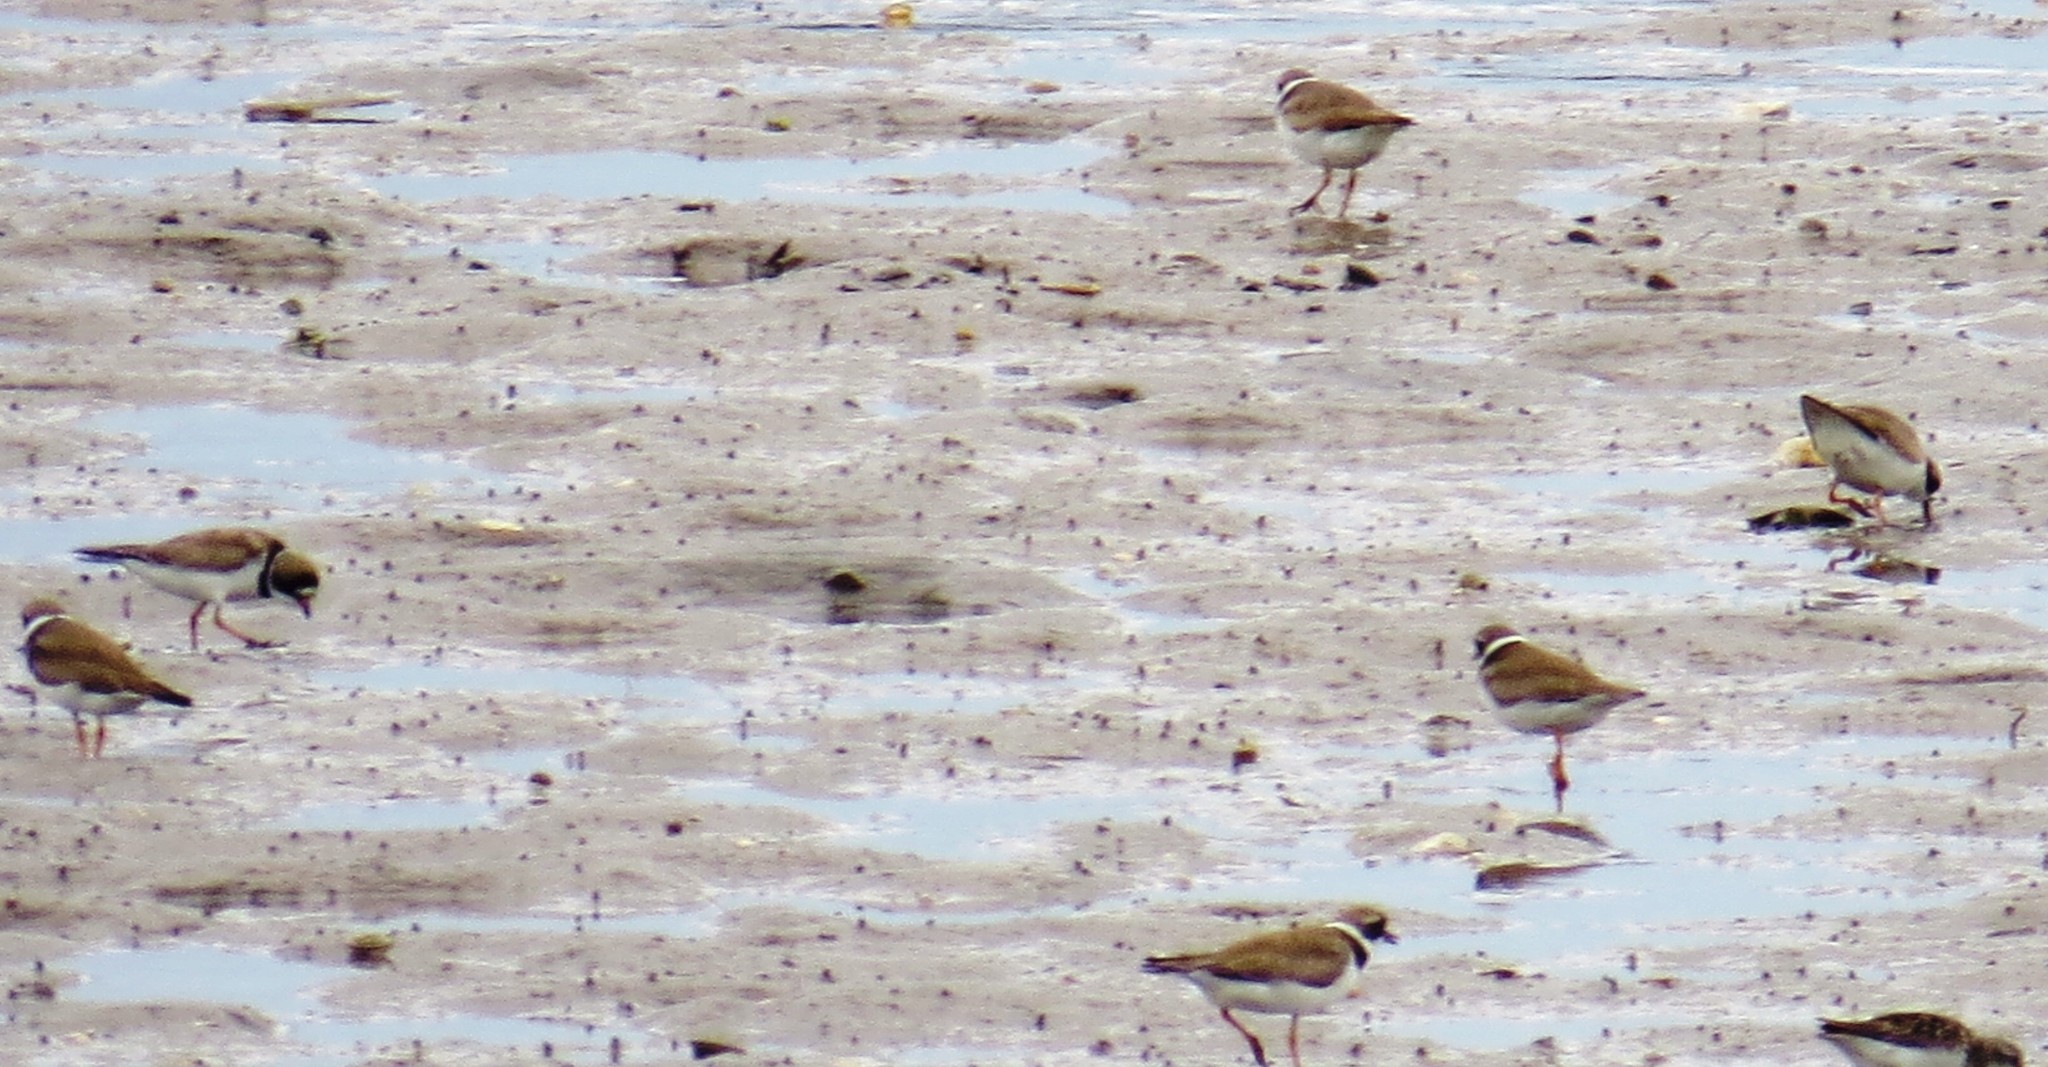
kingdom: Animalia
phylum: Chordata
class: Aves
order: Charadriiformes
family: Charadriidae
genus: Charadrius
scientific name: Charadrius semipalmatus
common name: Semipalmated plover
